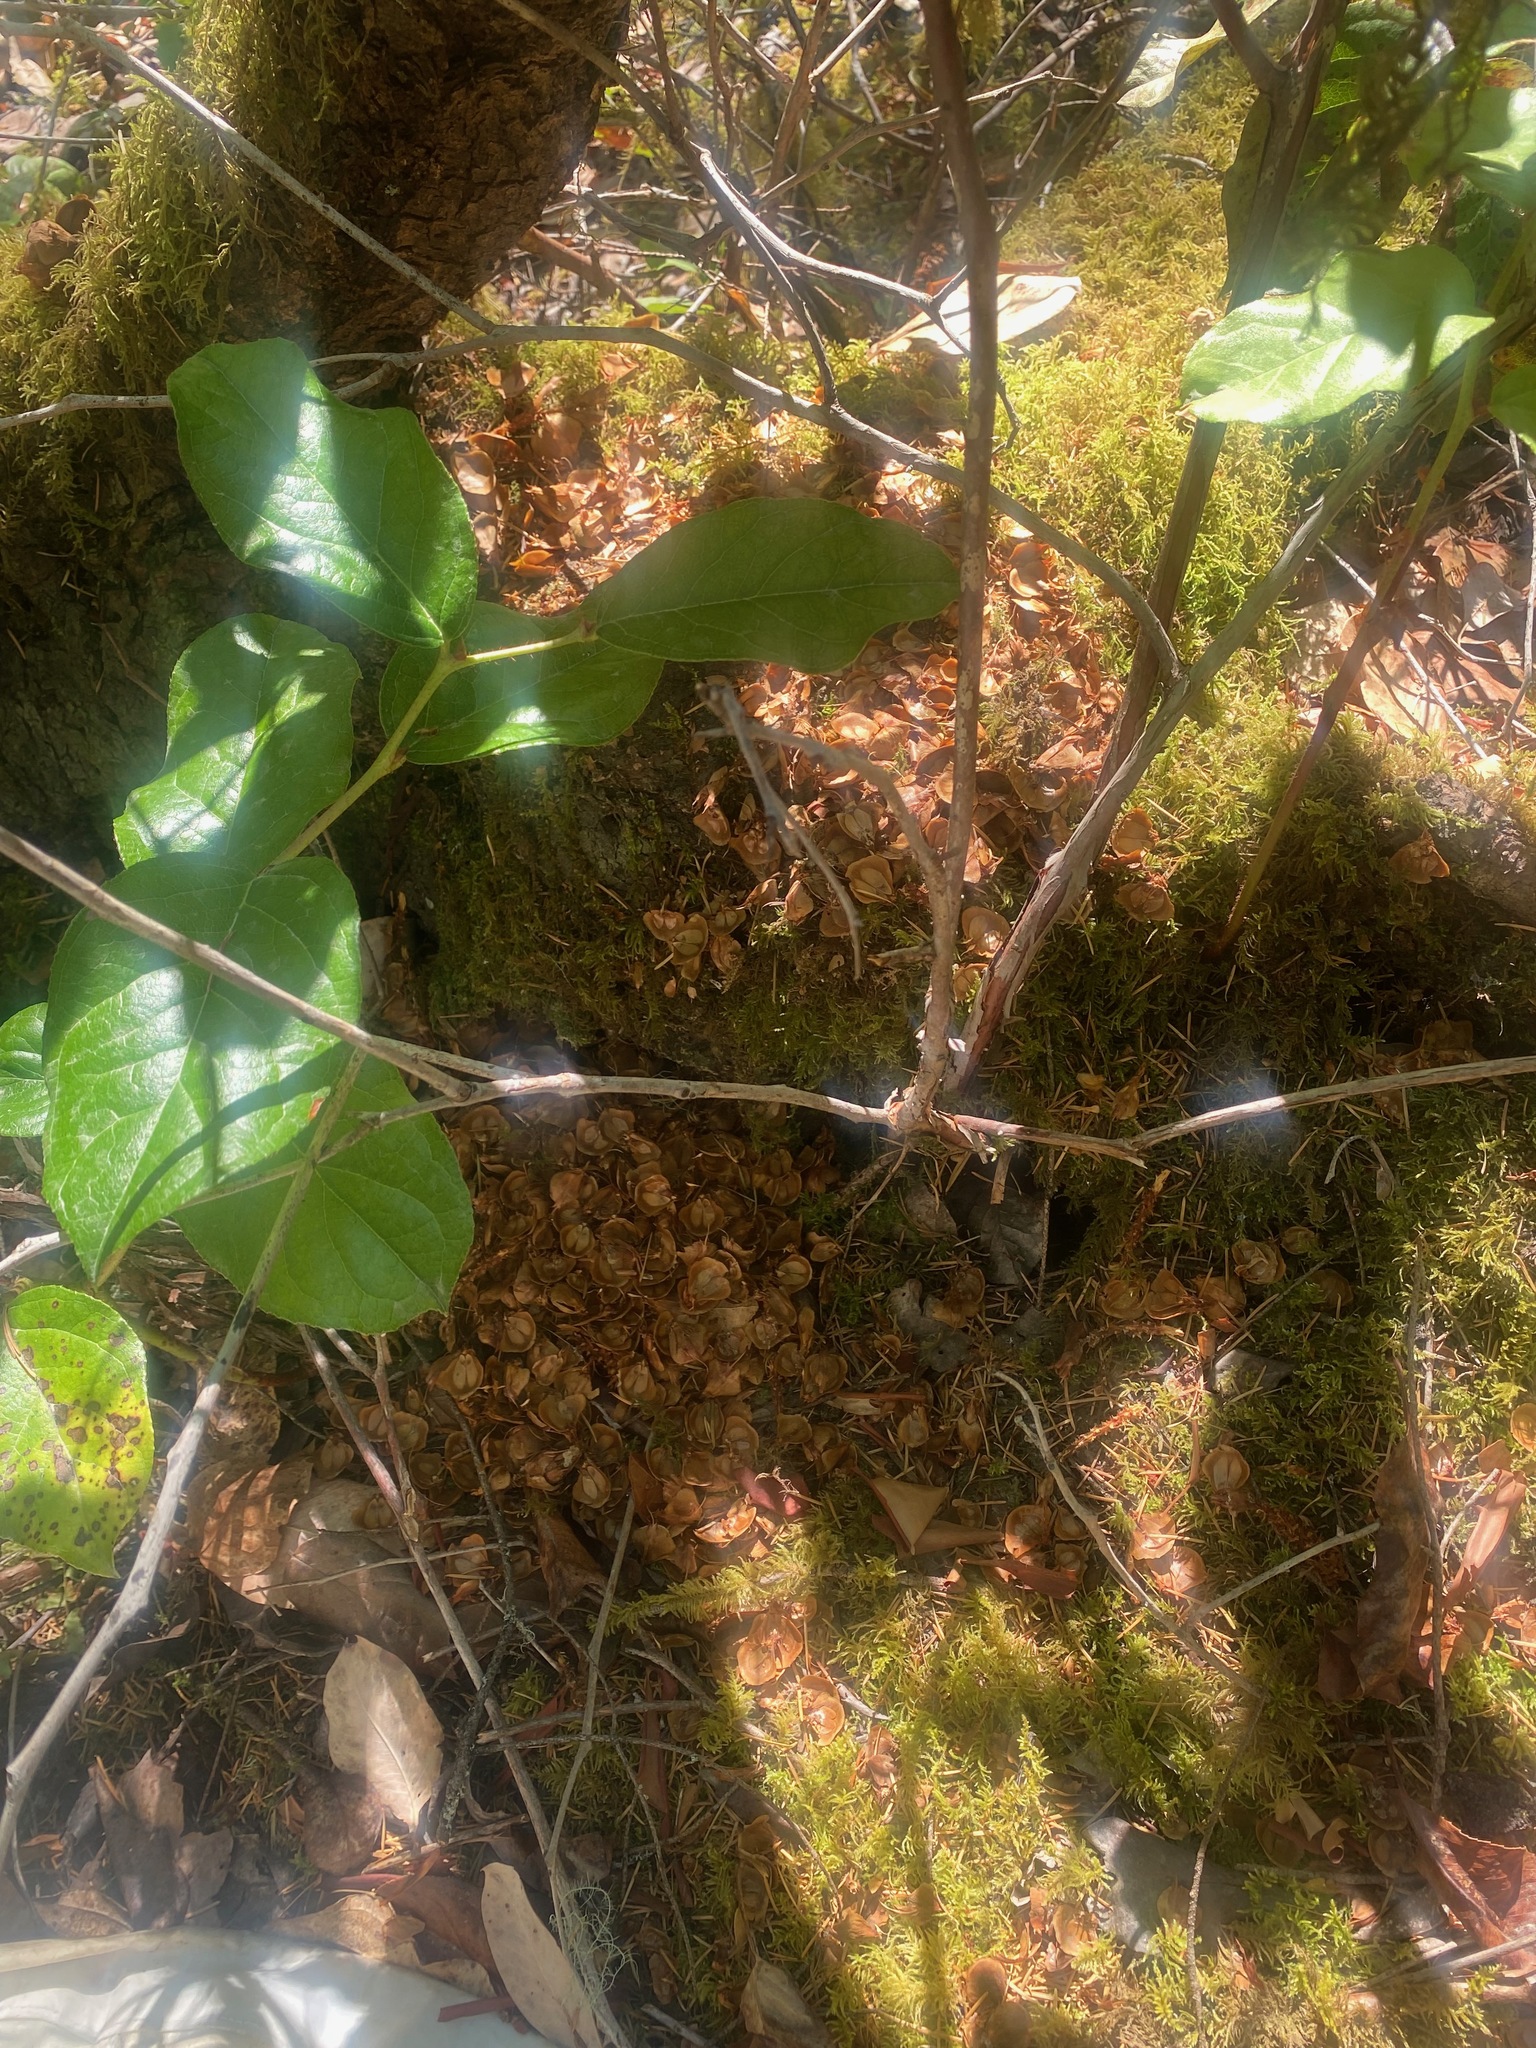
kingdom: Animalia
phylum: Chordata
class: Mammalia
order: Rodentia
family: Sciuridae
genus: Tamiasciurus
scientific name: Tamiasciurus hudsonicus
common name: Red squirrel
